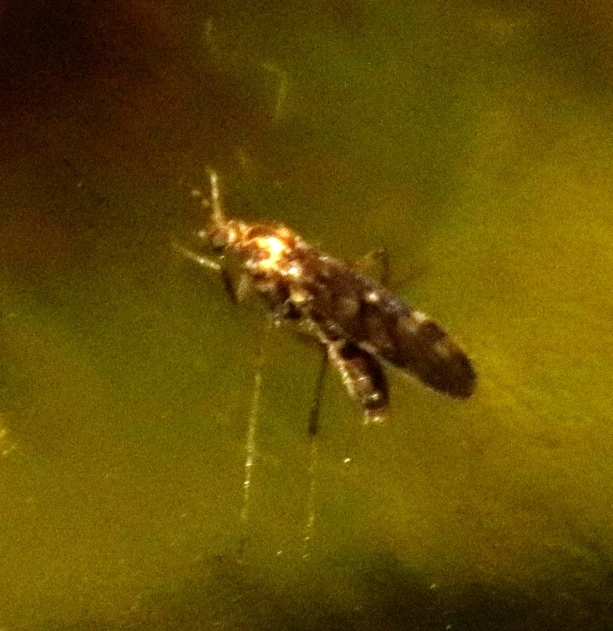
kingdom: Animalia
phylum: Arthropoda
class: Insecta
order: Diptera
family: Anisopodidae
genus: Sylvicola
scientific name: Sylvicola annulicornis
